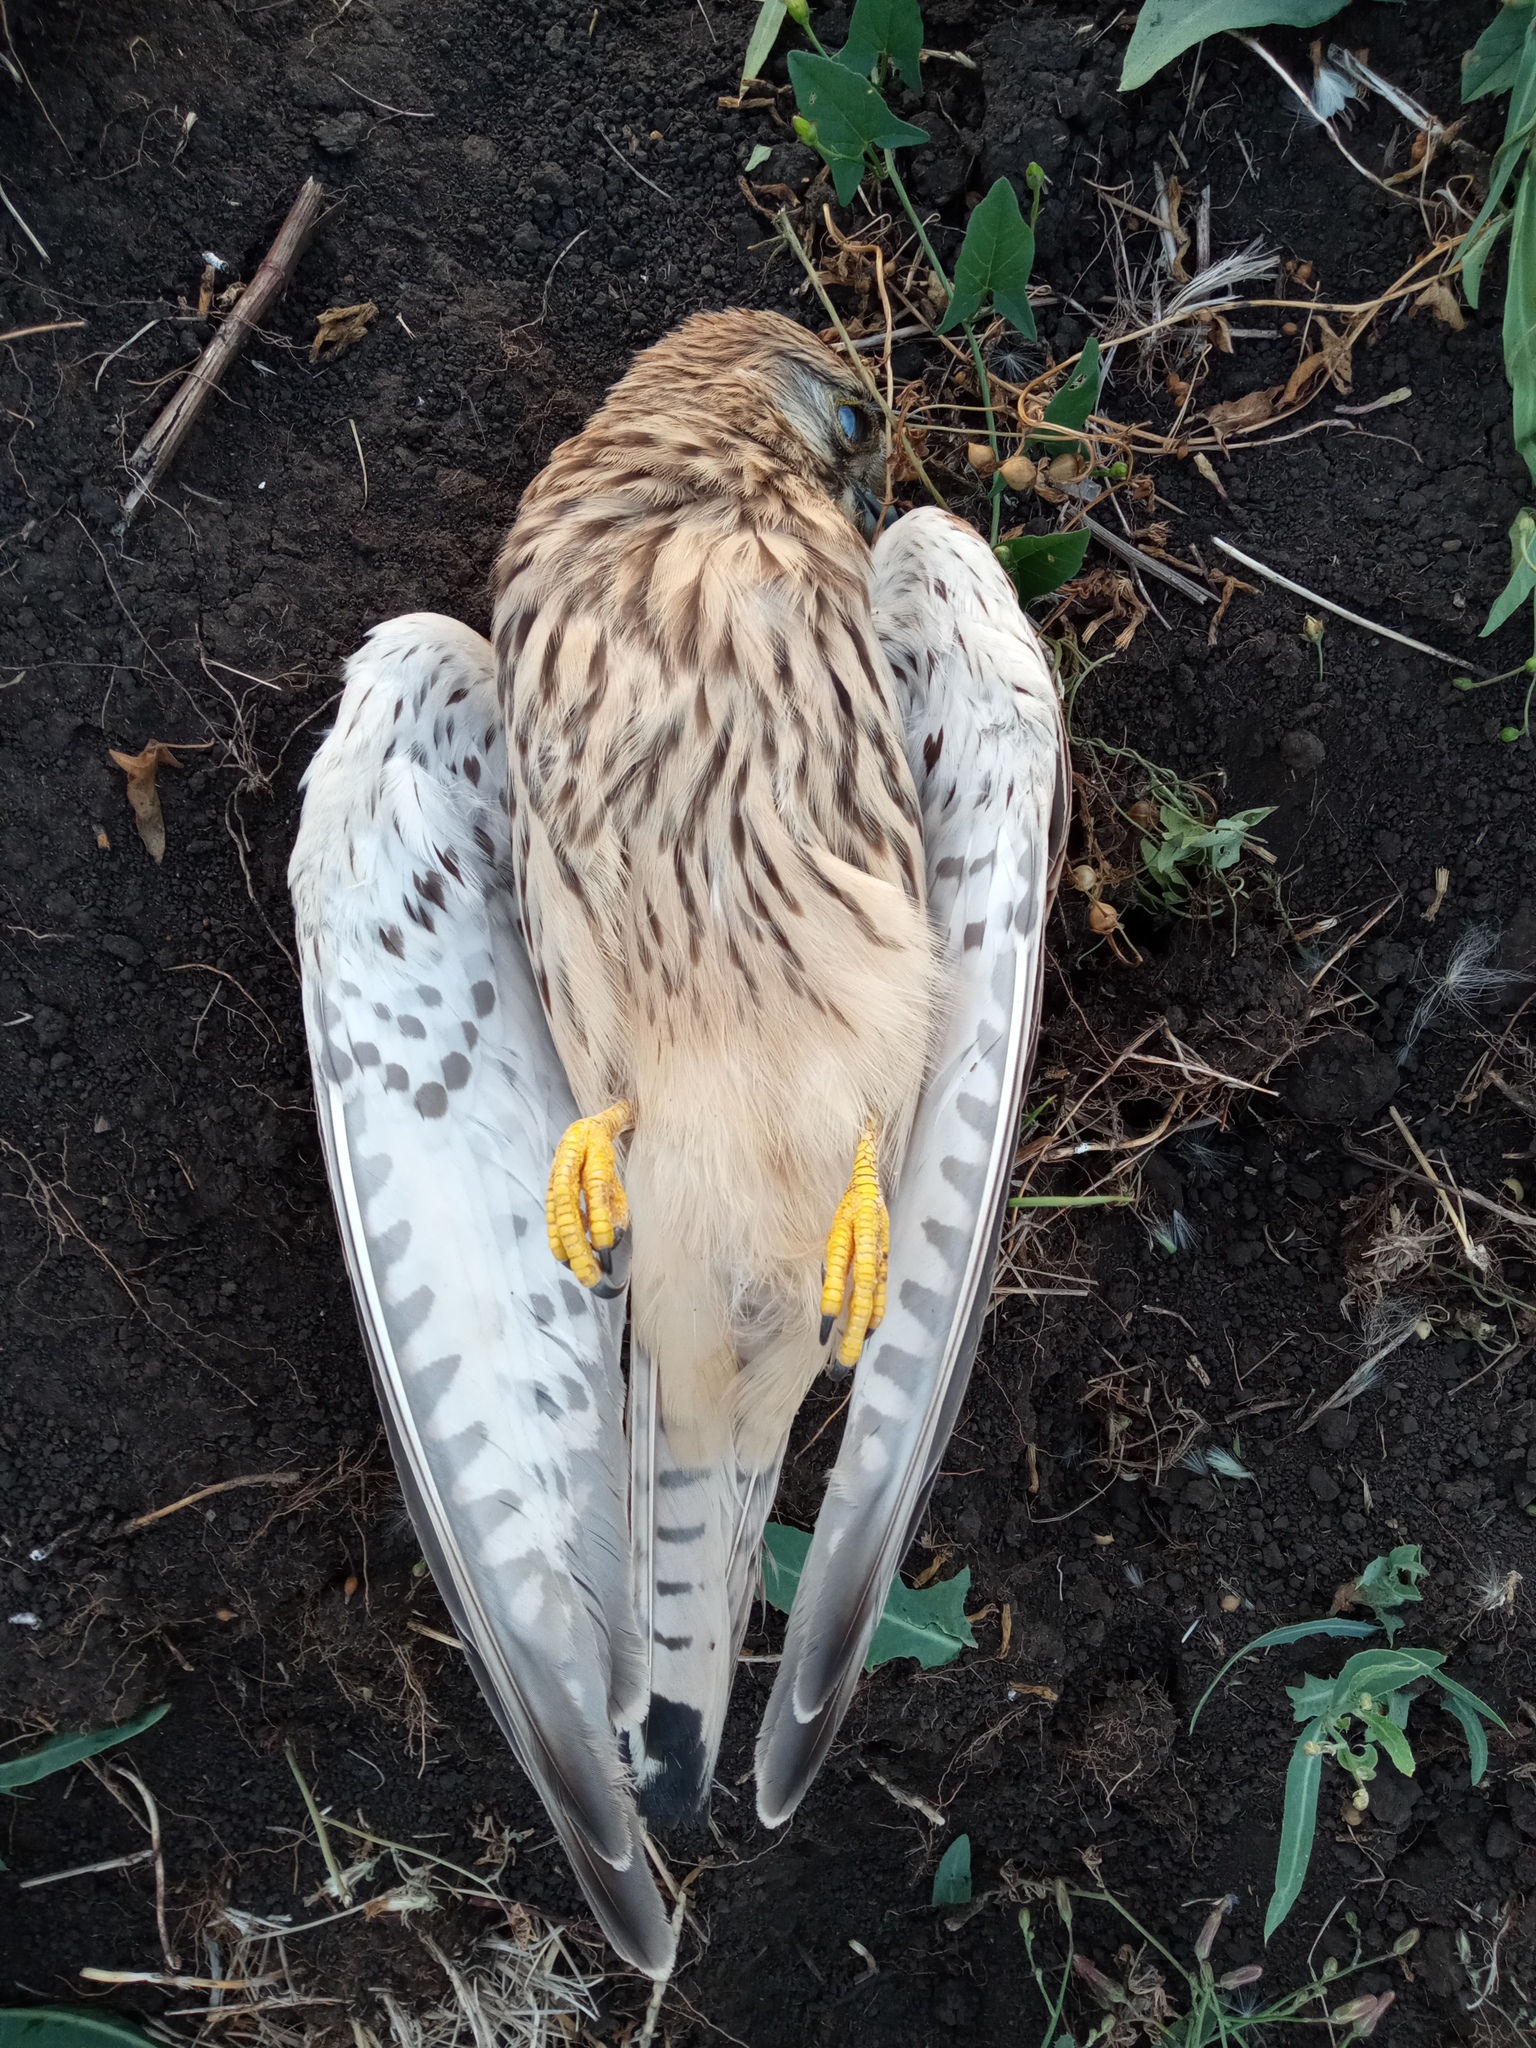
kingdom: Animalia
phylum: Chordata
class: Aves
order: Falconiformes
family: Falconidae
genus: Falco
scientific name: Falco tinnunculus
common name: Common kestrel
